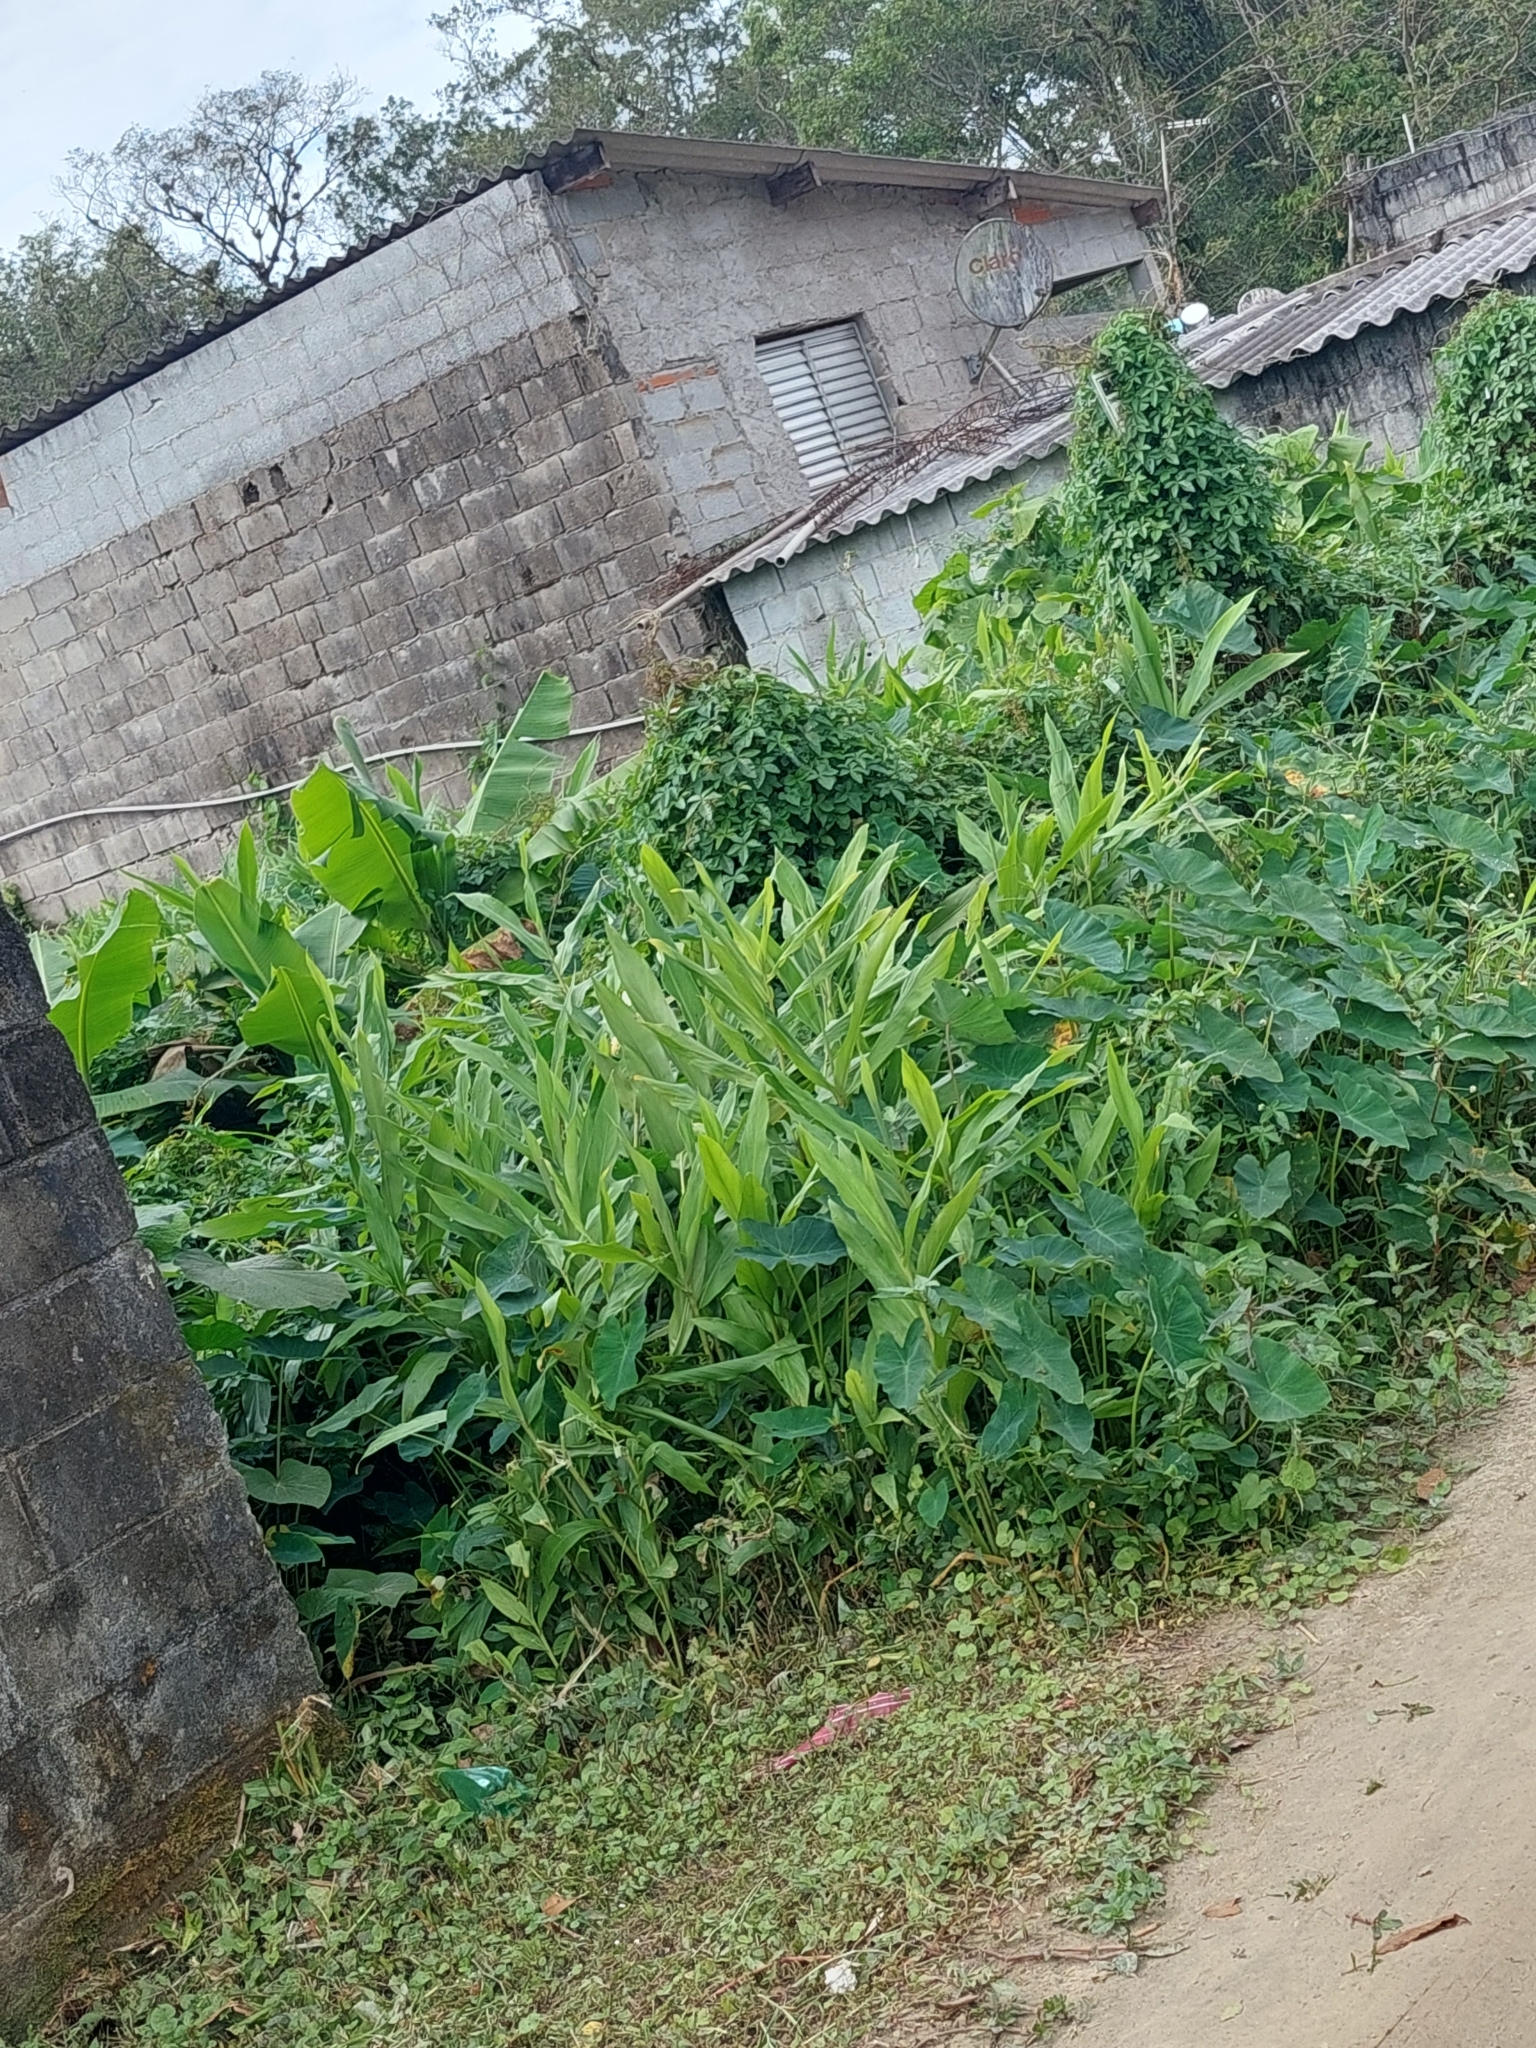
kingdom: Plantae
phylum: Tracheophyta
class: Liliopsida
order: Zingiberales
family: Zingiberaceae
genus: Hedychium
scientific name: Hedychium coronarium
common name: White garland-lily
